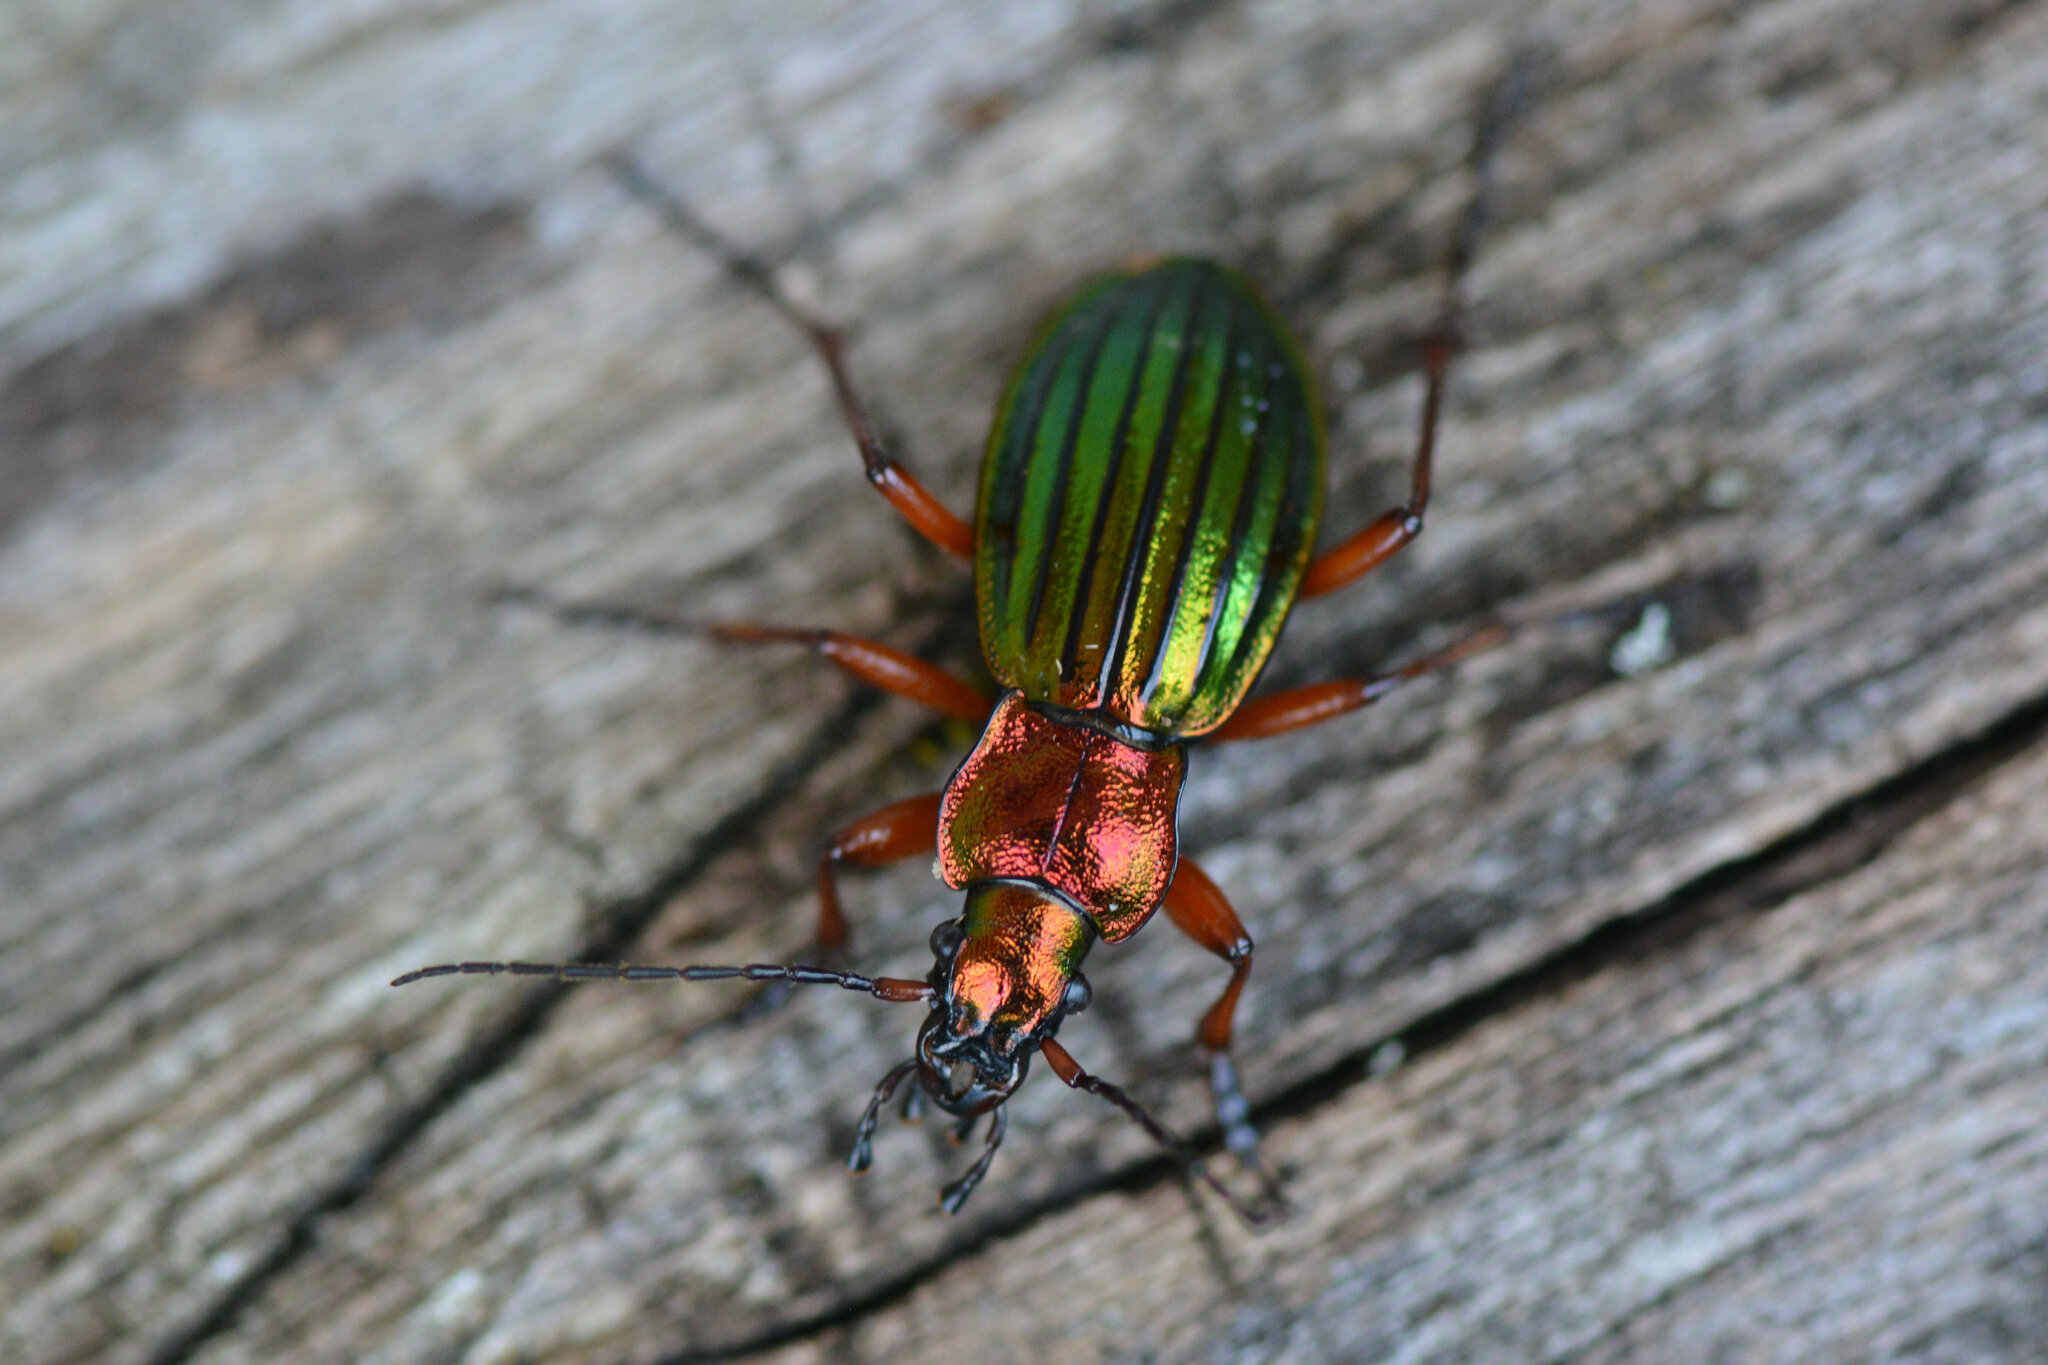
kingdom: Animalia
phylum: Arthropoda
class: Insecta
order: Coleoptera
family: Carabidae
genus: Carabus
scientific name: Carabus auronitens
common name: Carabus auronitens
